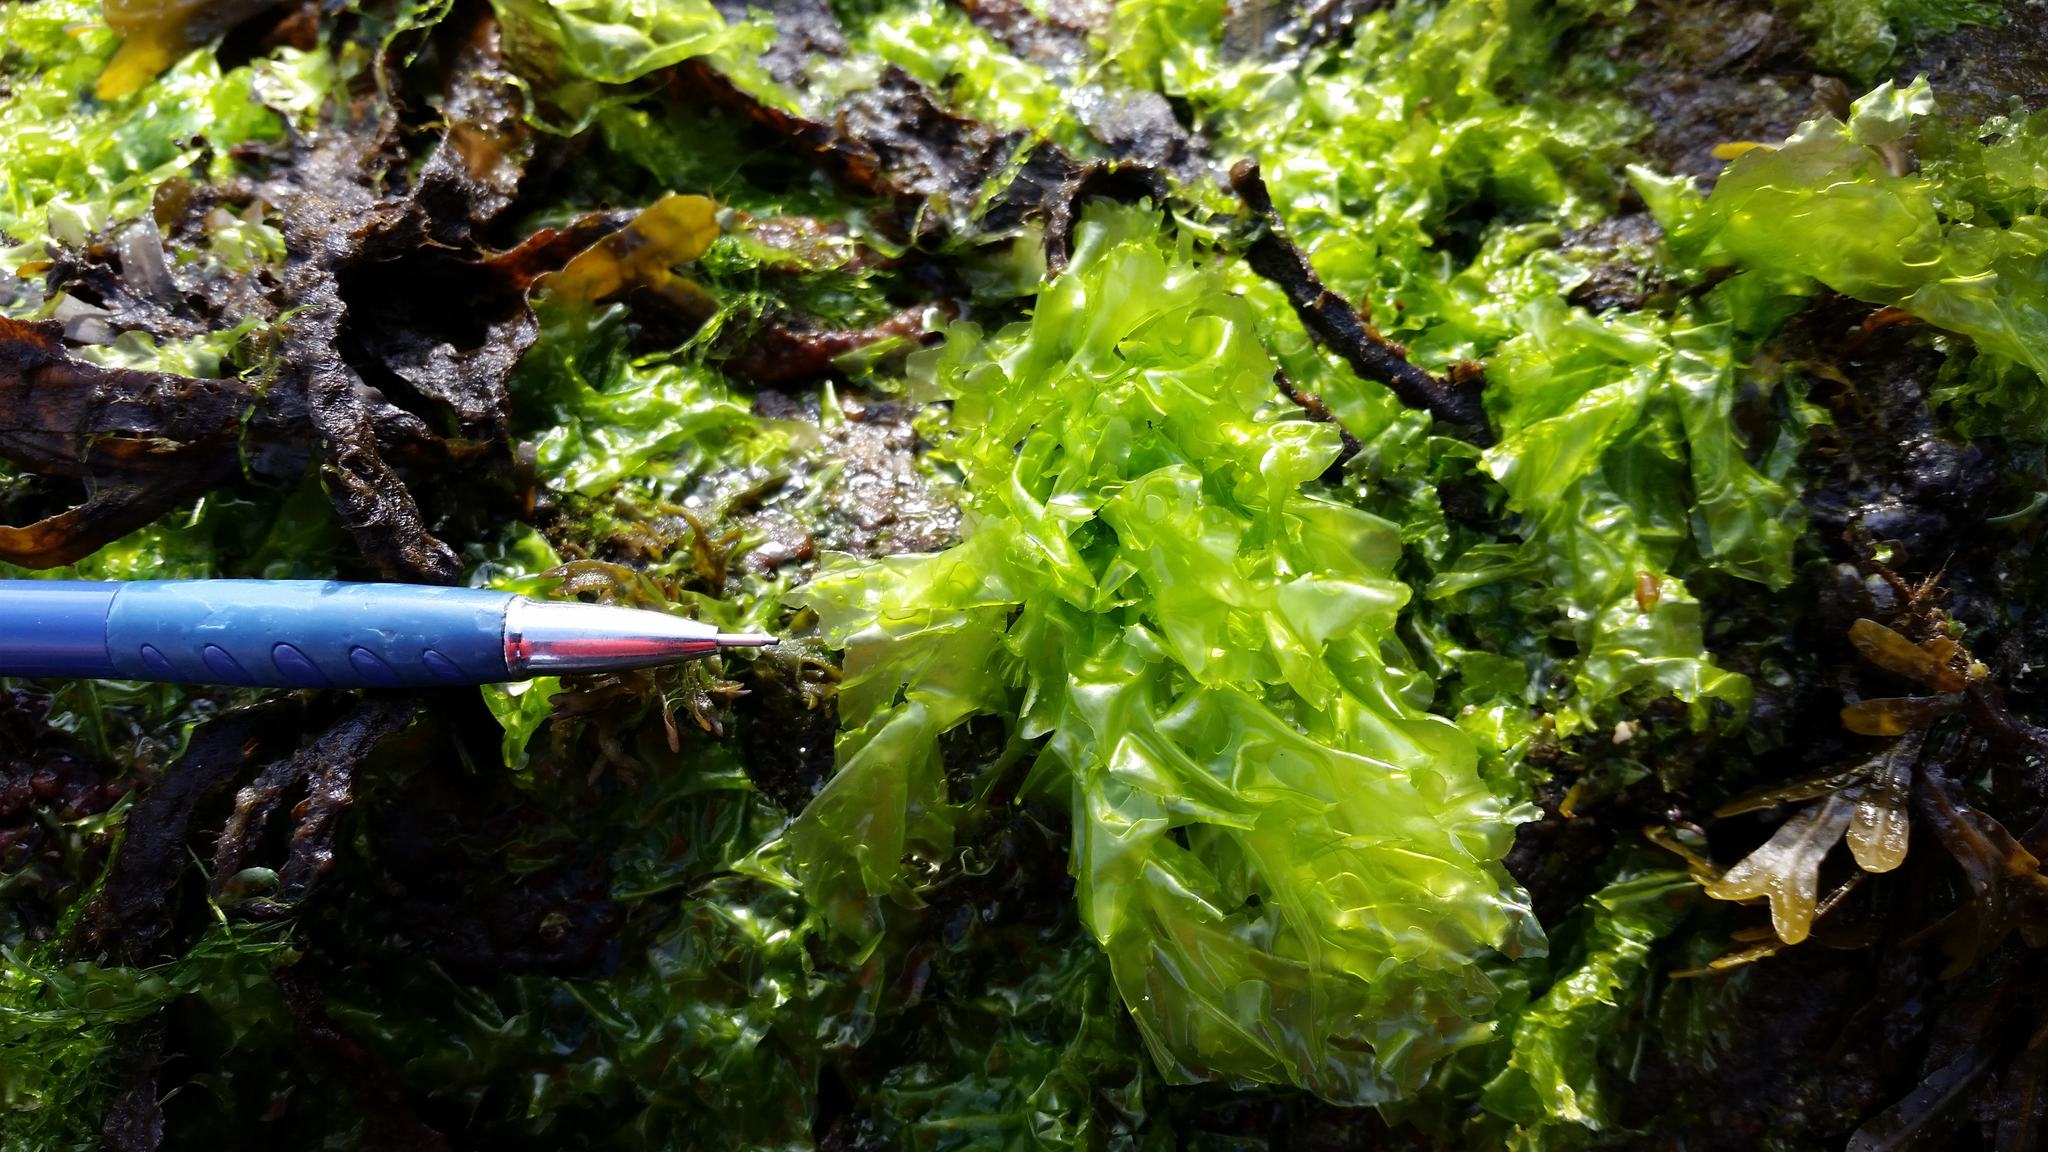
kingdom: Plantae
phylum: Chlorophyta
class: Ulvophyceae
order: Ulvales
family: Ulvaceae
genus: Ulva
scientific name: Ulva fenestrata
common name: Sea lettuce
